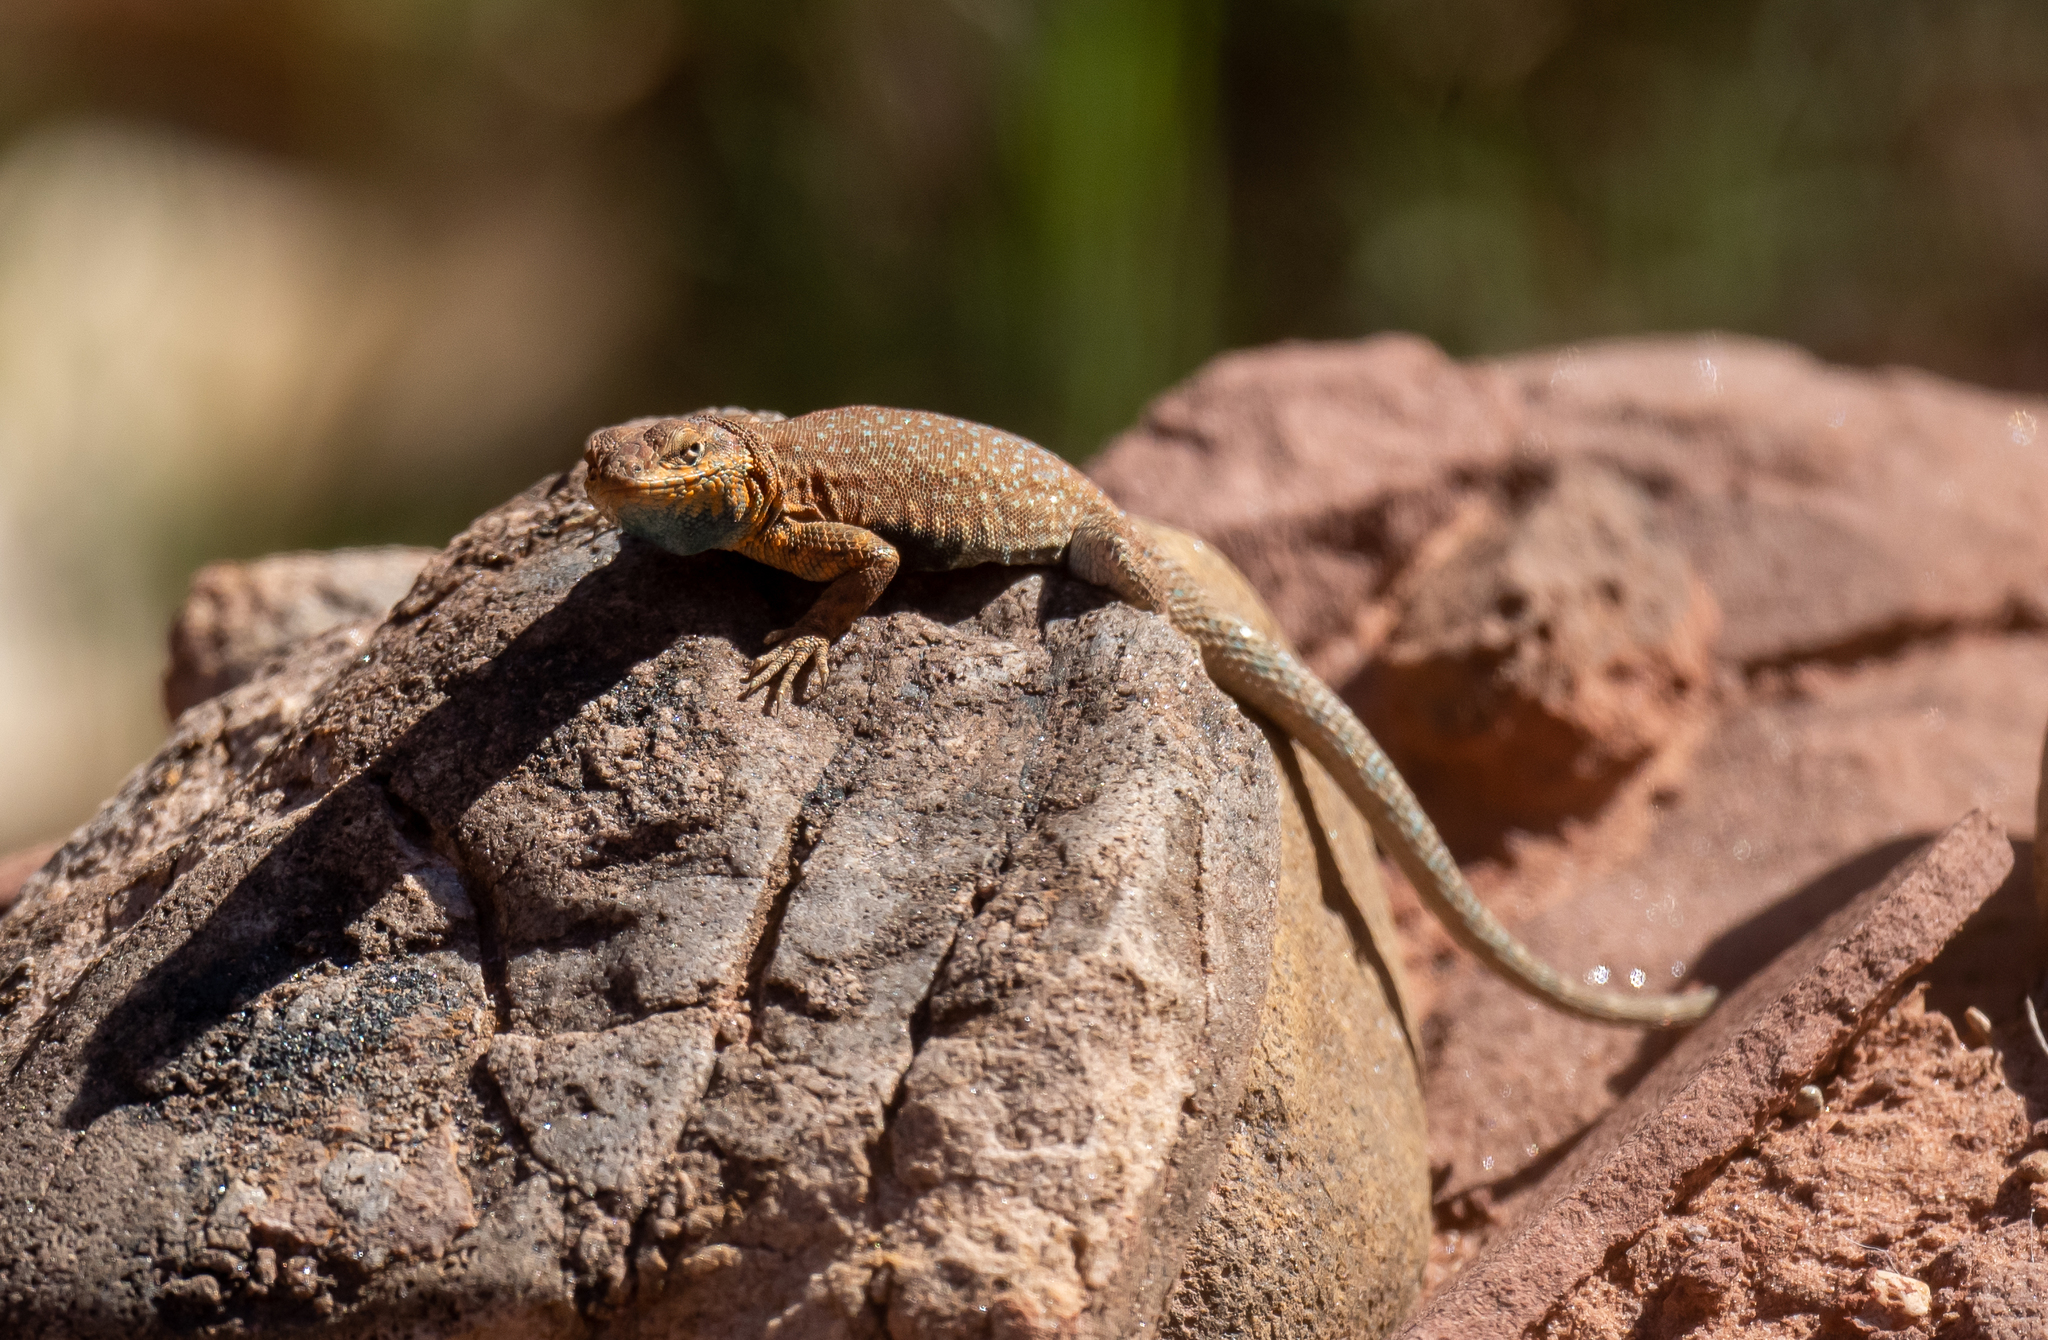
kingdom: Animalia
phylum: Chordata
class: Squamata
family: Phrynosomatidae
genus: Uta
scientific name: Uta stansburiana
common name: Side-blotched lizard
